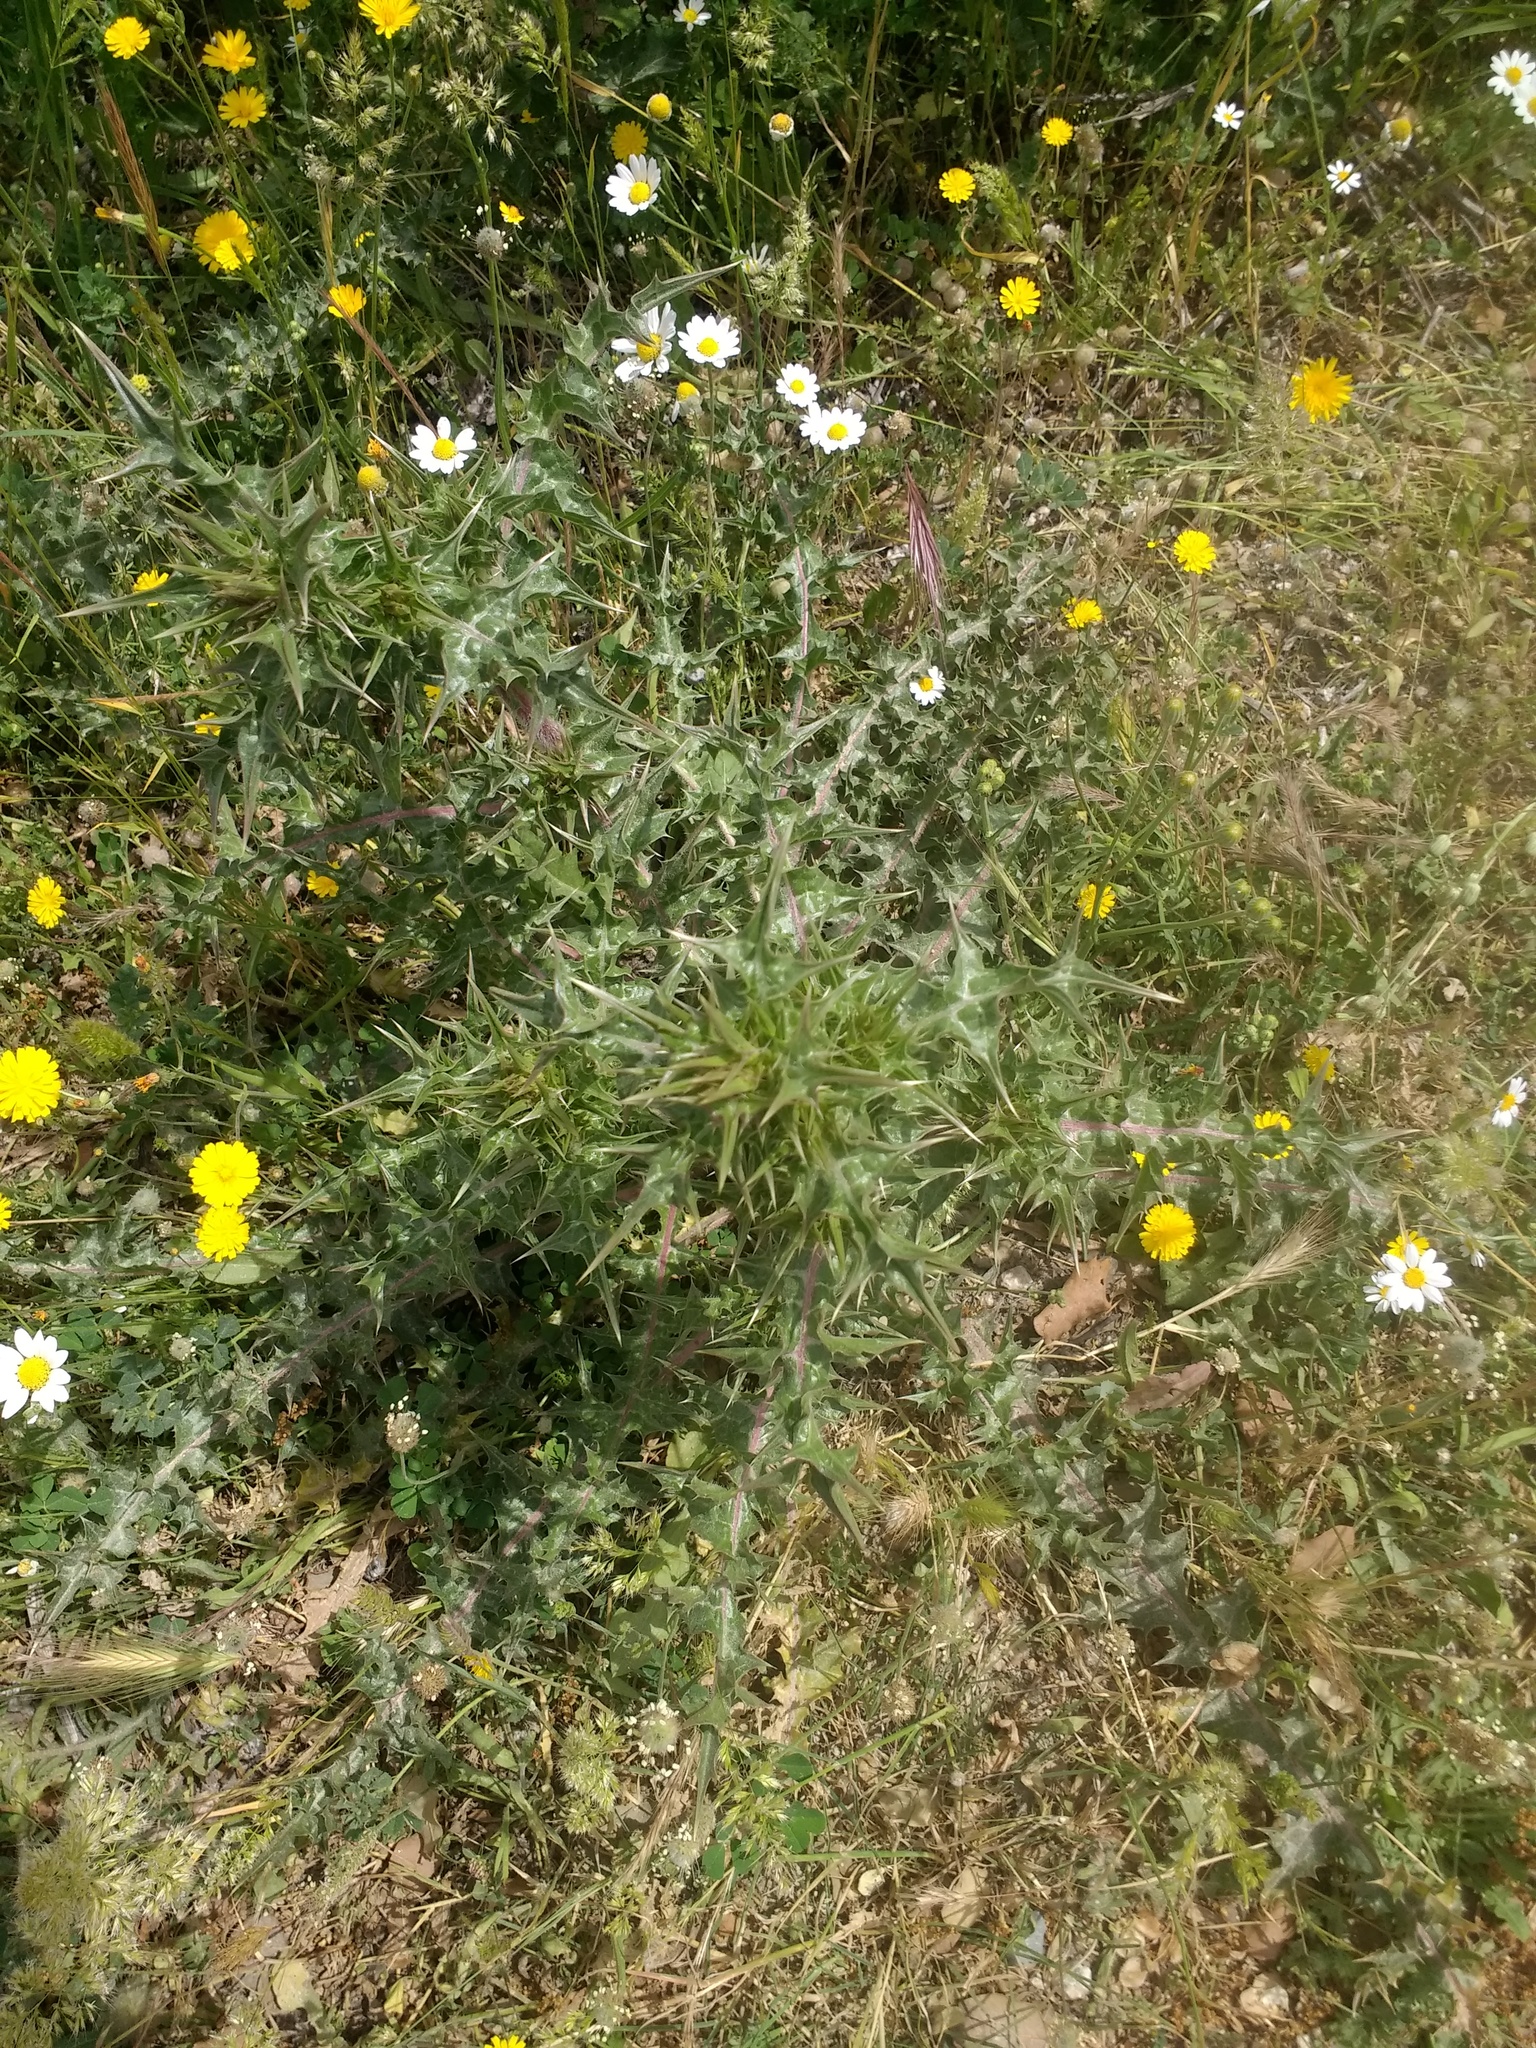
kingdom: Plantae
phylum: Tracheophyta
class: Magnoliopsida
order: Asterales
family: Asteraceae
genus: Scolymus
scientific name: Scolymus hispanicus
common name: Golden thistle
